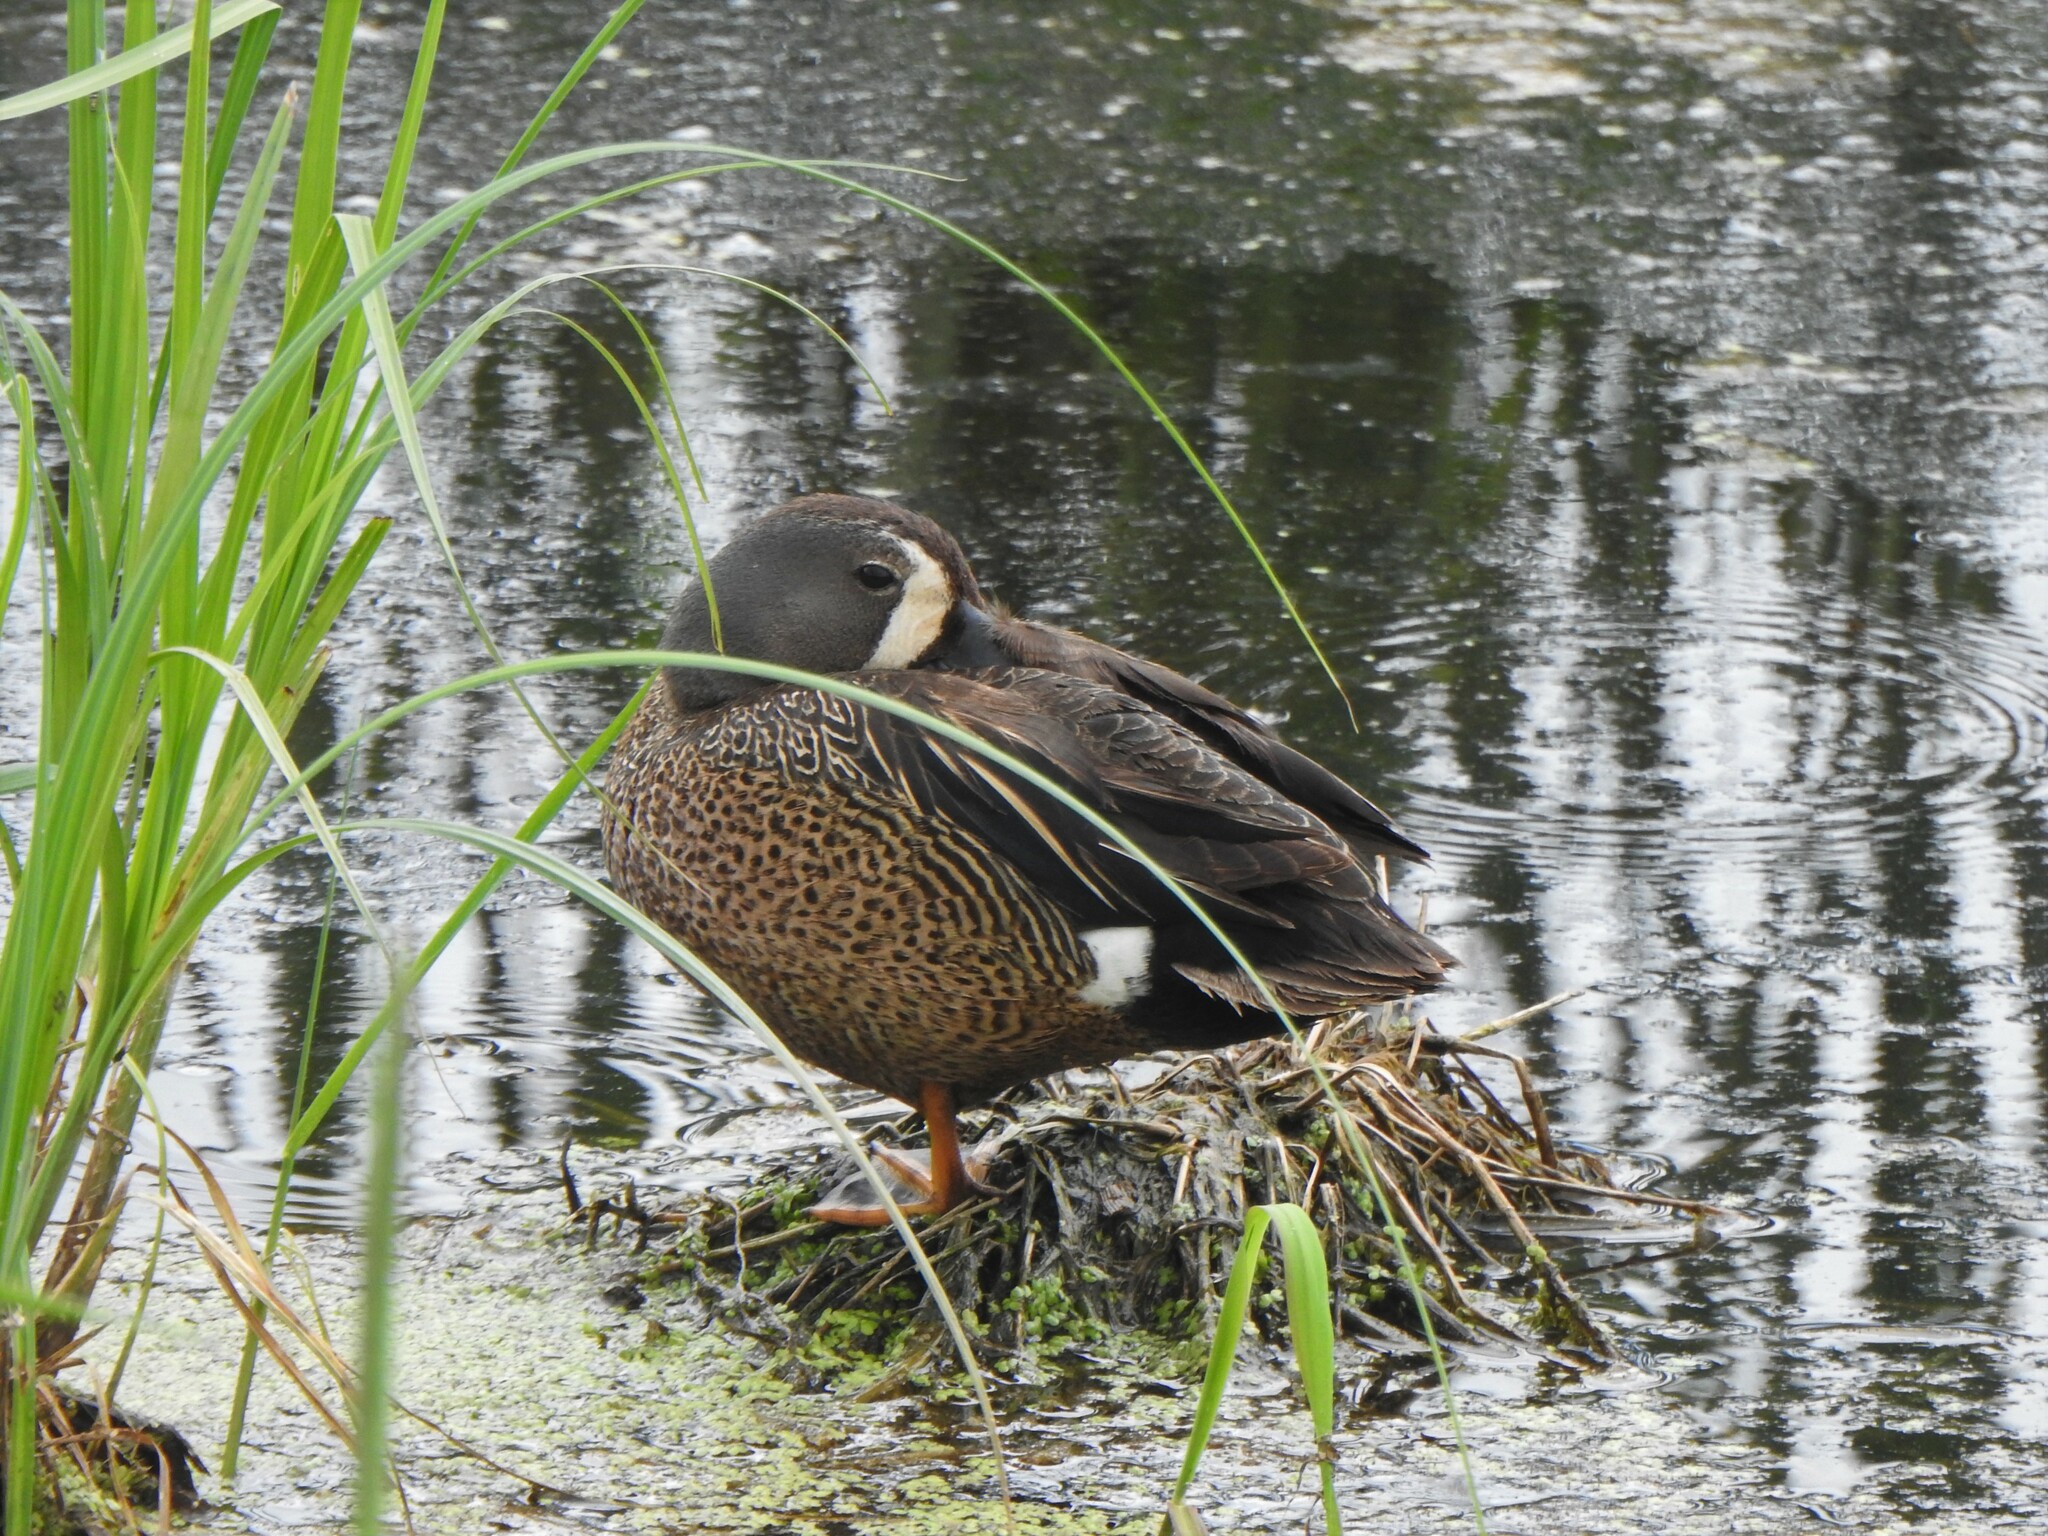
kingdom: Animalia
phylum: Chordata
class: Aves
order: Anseriformes
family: Anatidae
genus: Spatula
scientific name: Spatula discors
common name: Blue-winged teal
